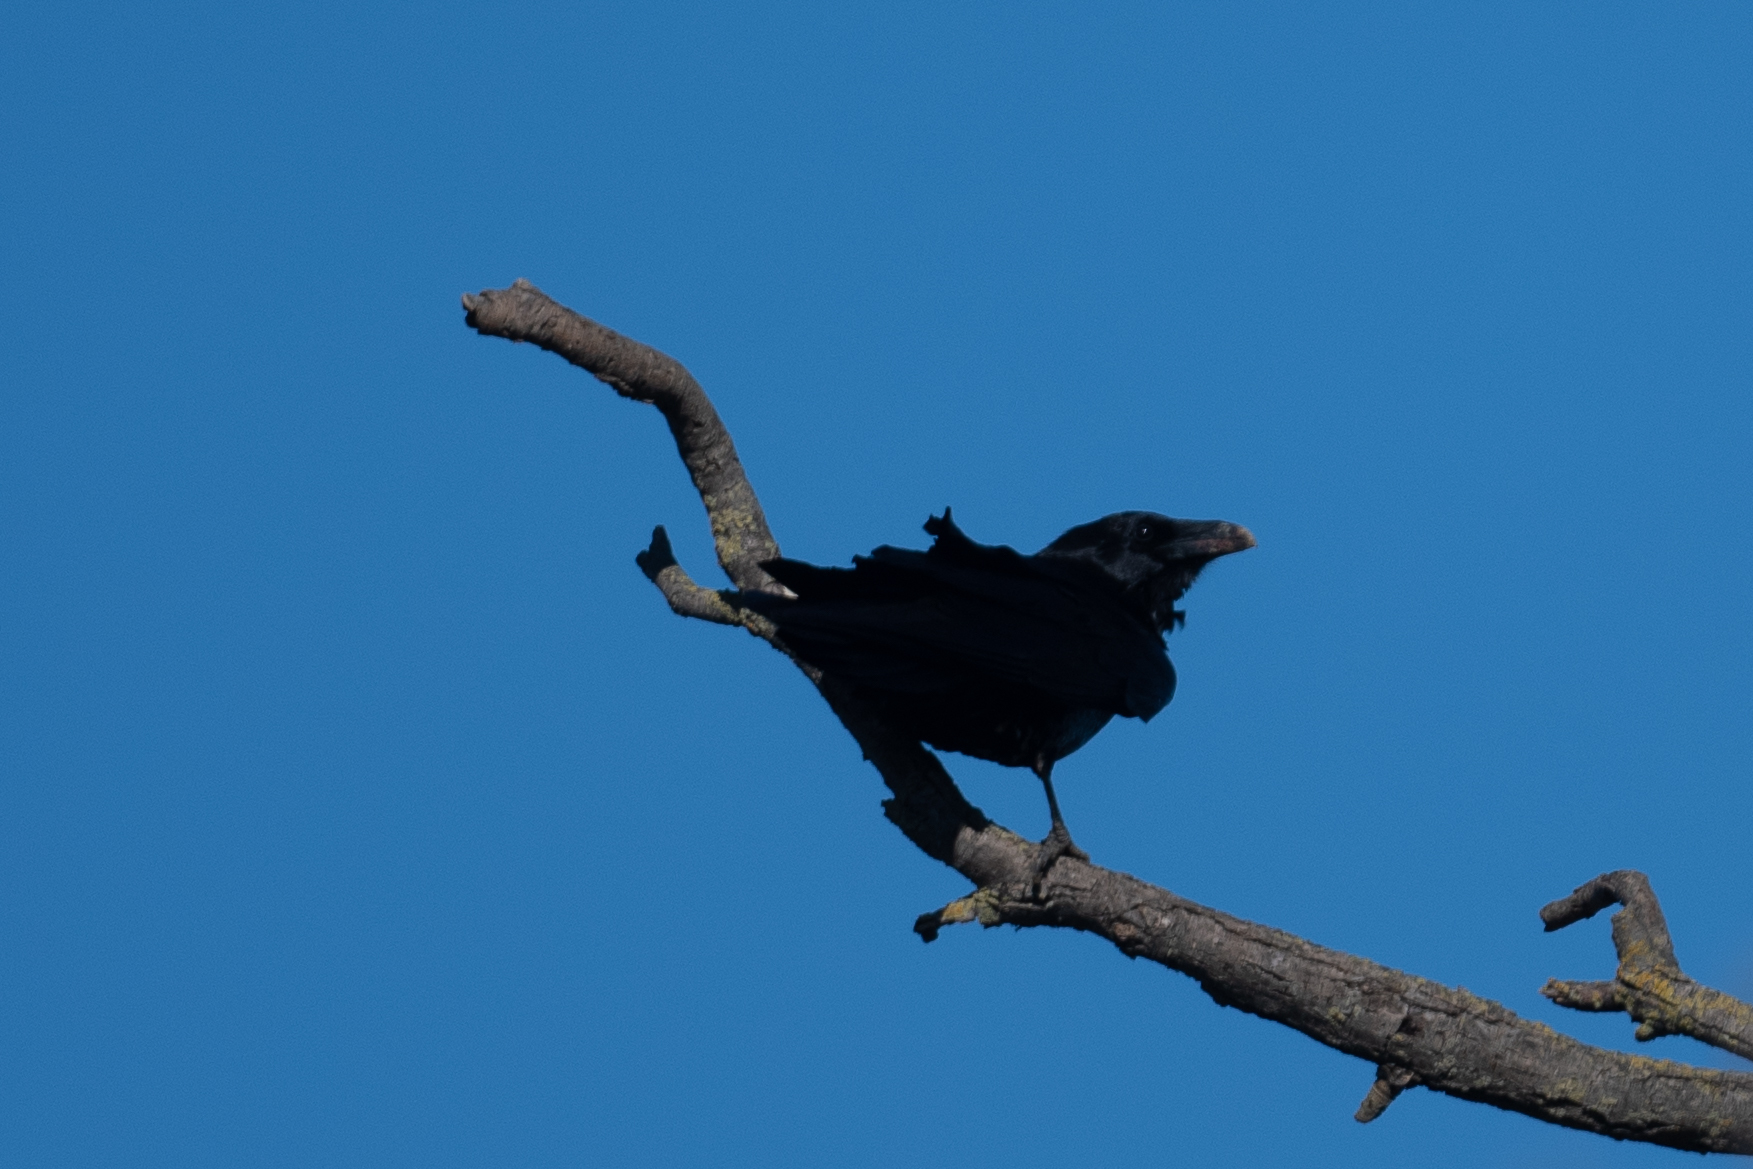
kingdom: Animalia
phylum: Chordata
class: Aves
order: Passeriformes
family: Corvidae
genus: Corvus
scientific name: Corvus corax
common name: Common raven
